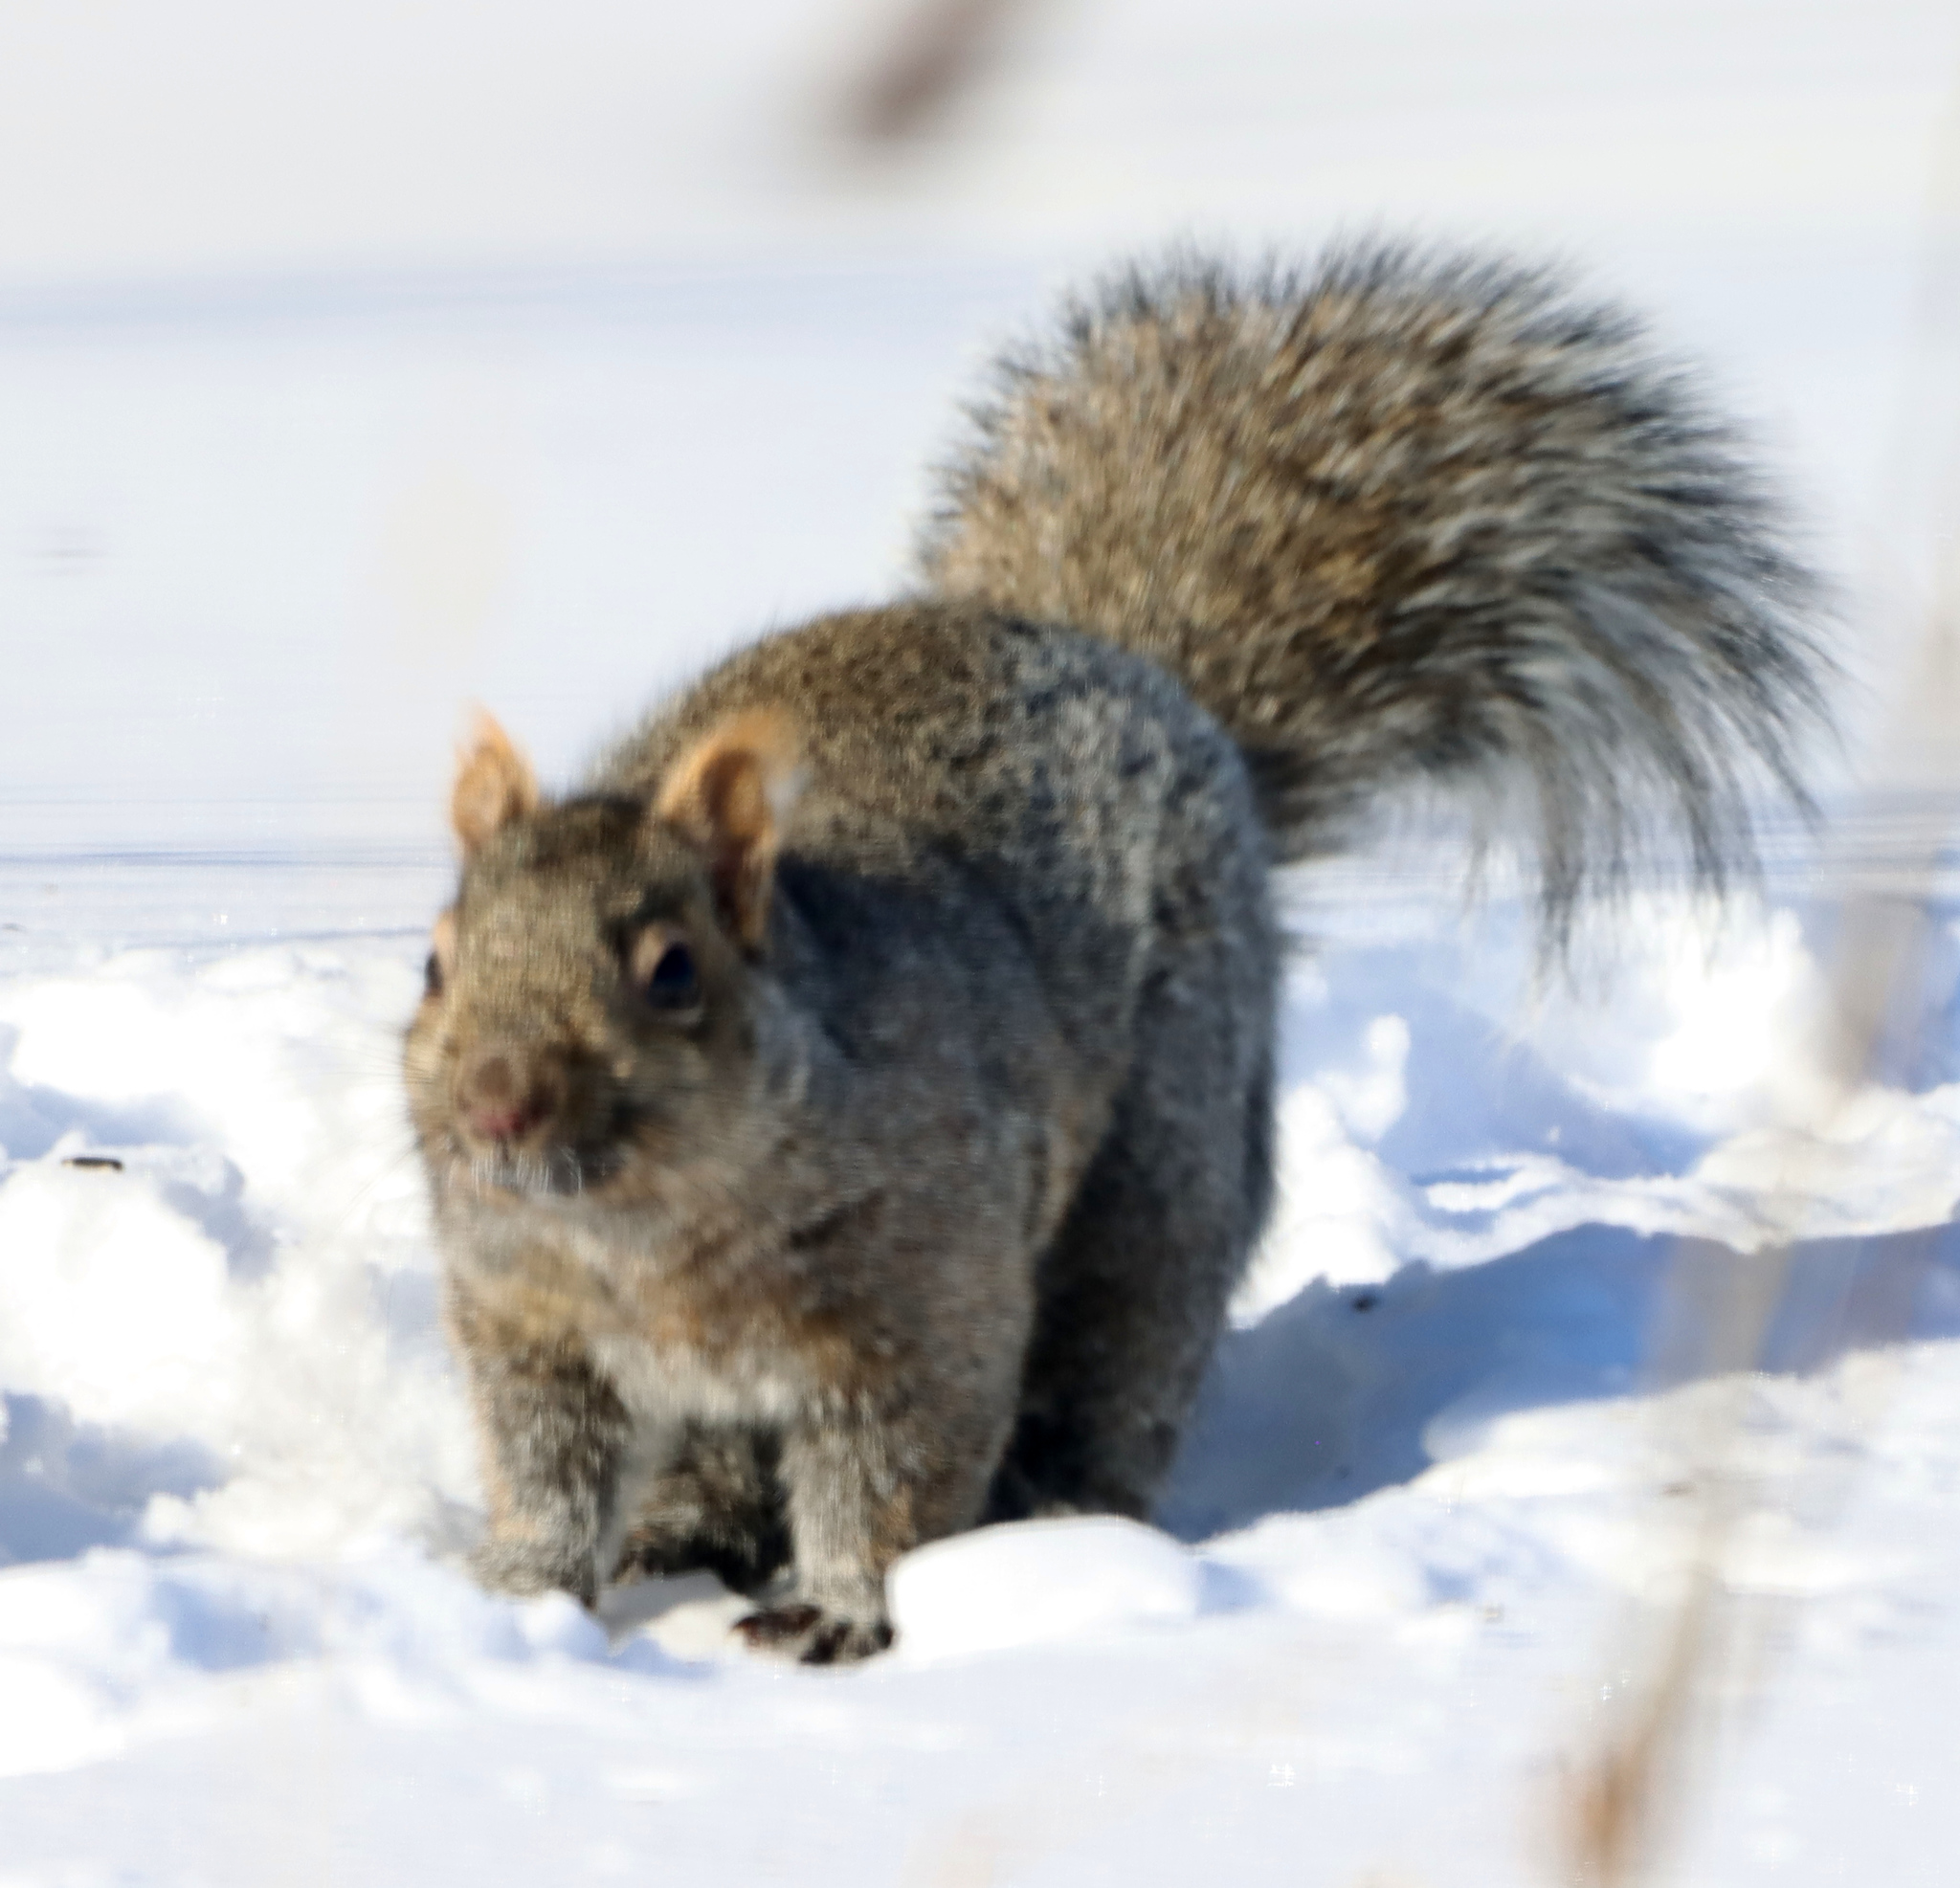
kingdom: Animalia
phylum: Chordata
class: Mammalia
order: Rodentia
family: Sciuridae
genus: Sciurus
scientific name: Sciurus carolinensis
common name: Eastern gray squirrel
